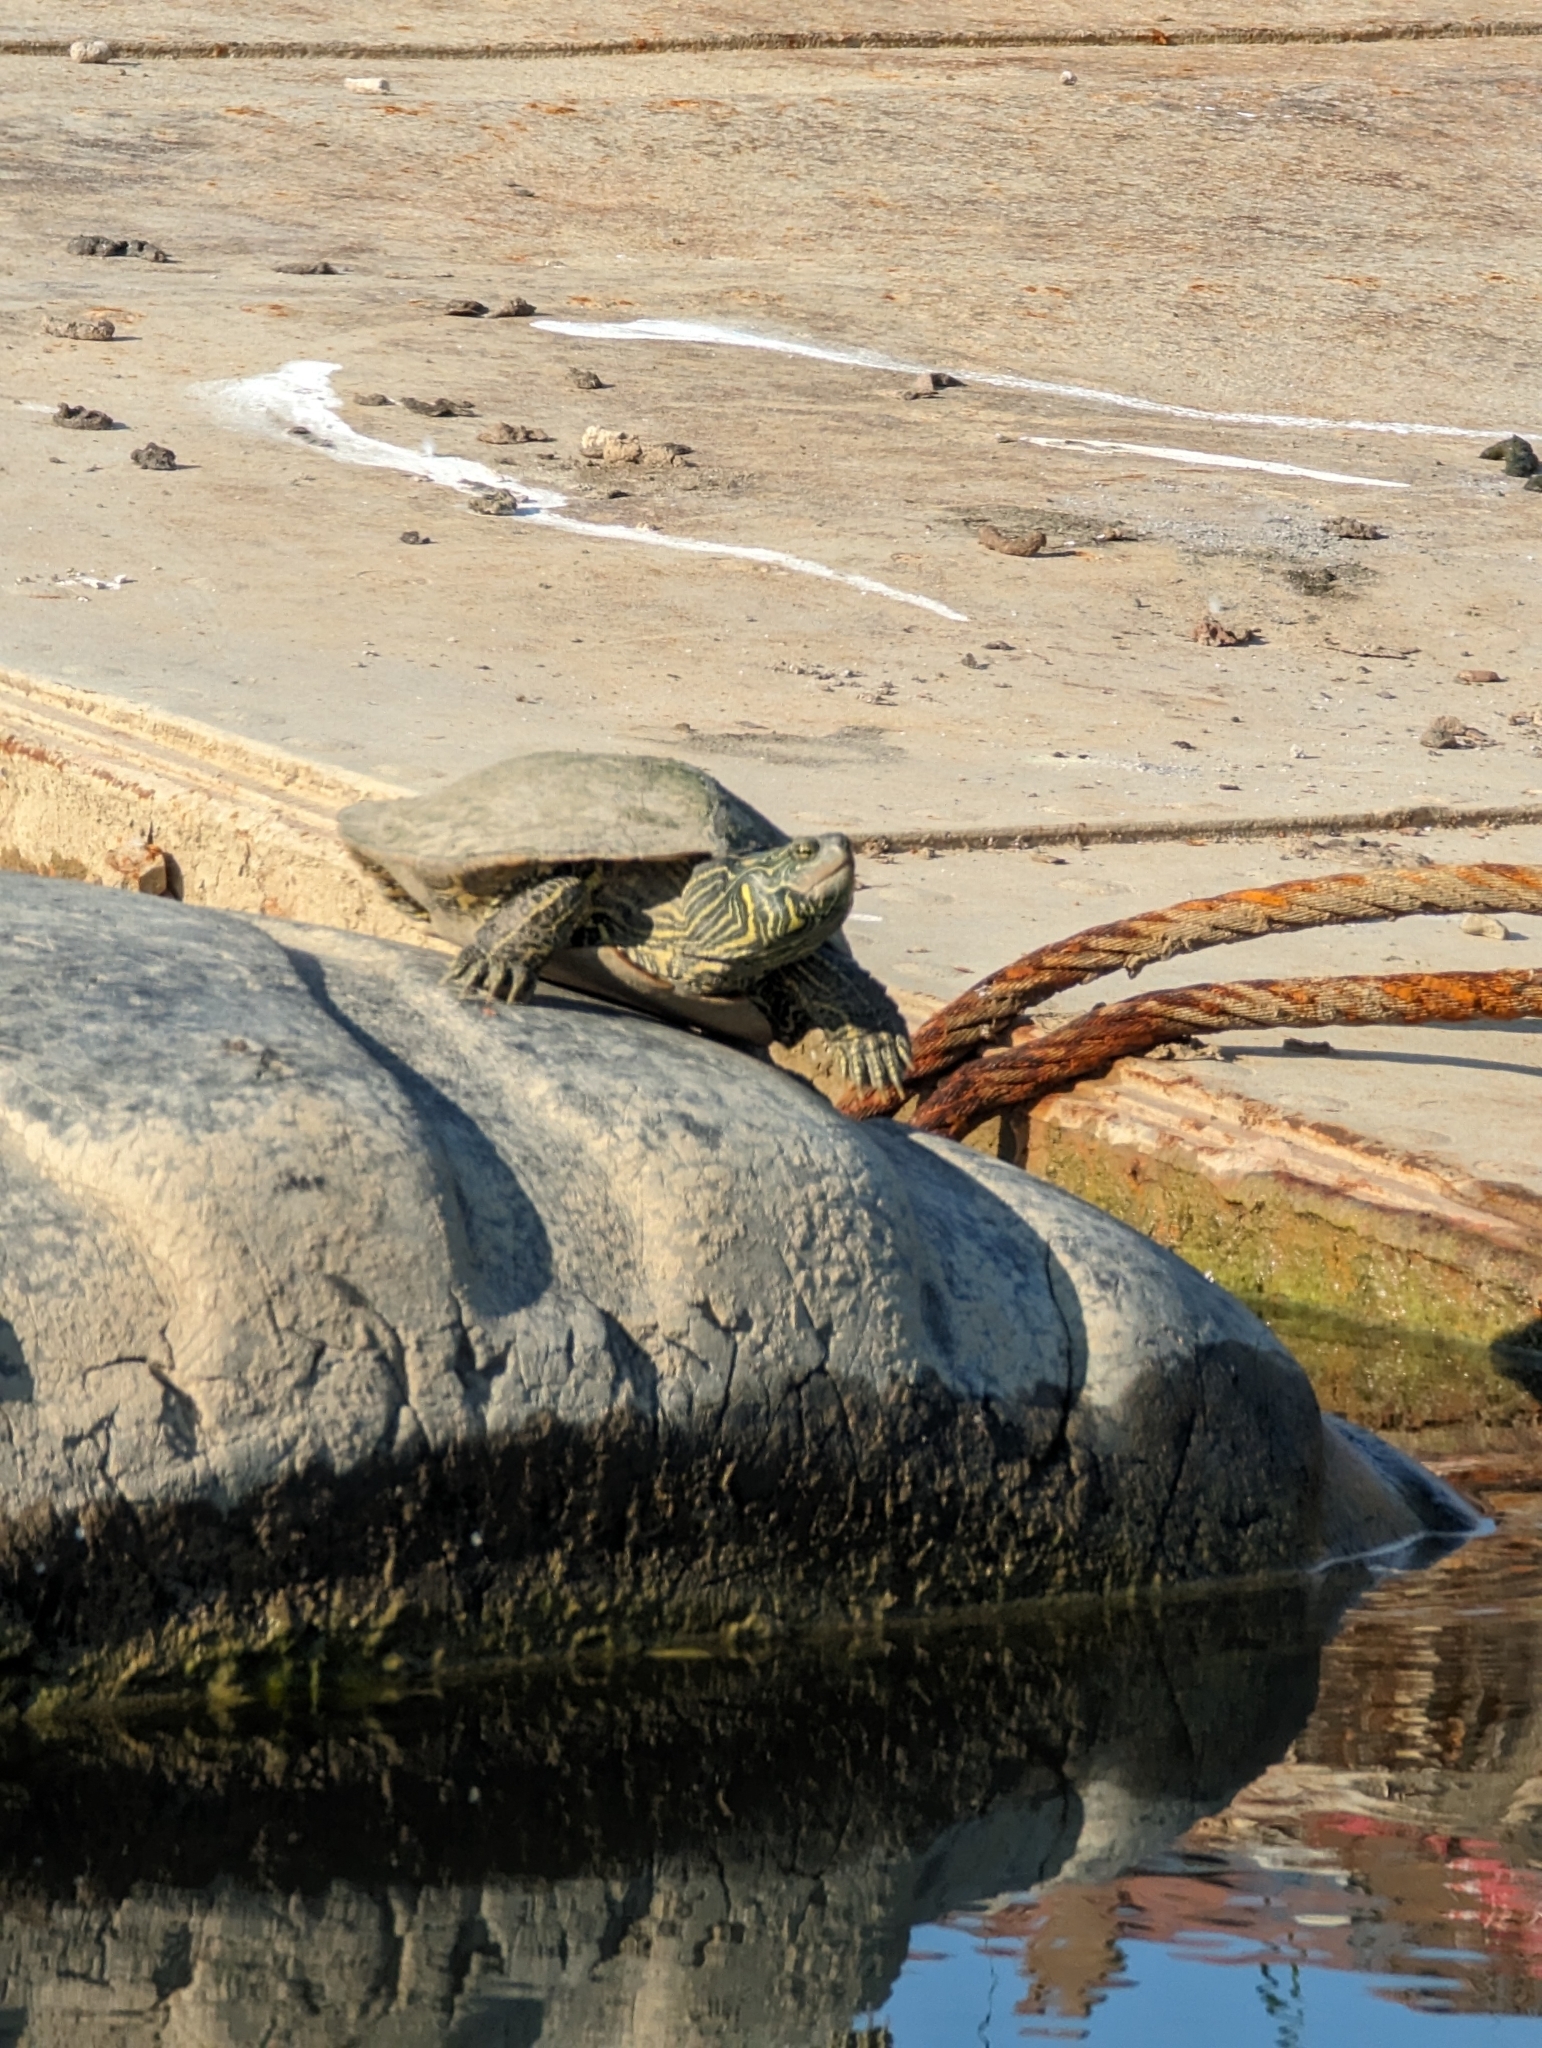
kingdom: Animalia
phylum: Chordata
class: Testudines
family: Emydidae
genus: Graptemys
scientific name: Graptemys geographica
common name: Common map turtle
